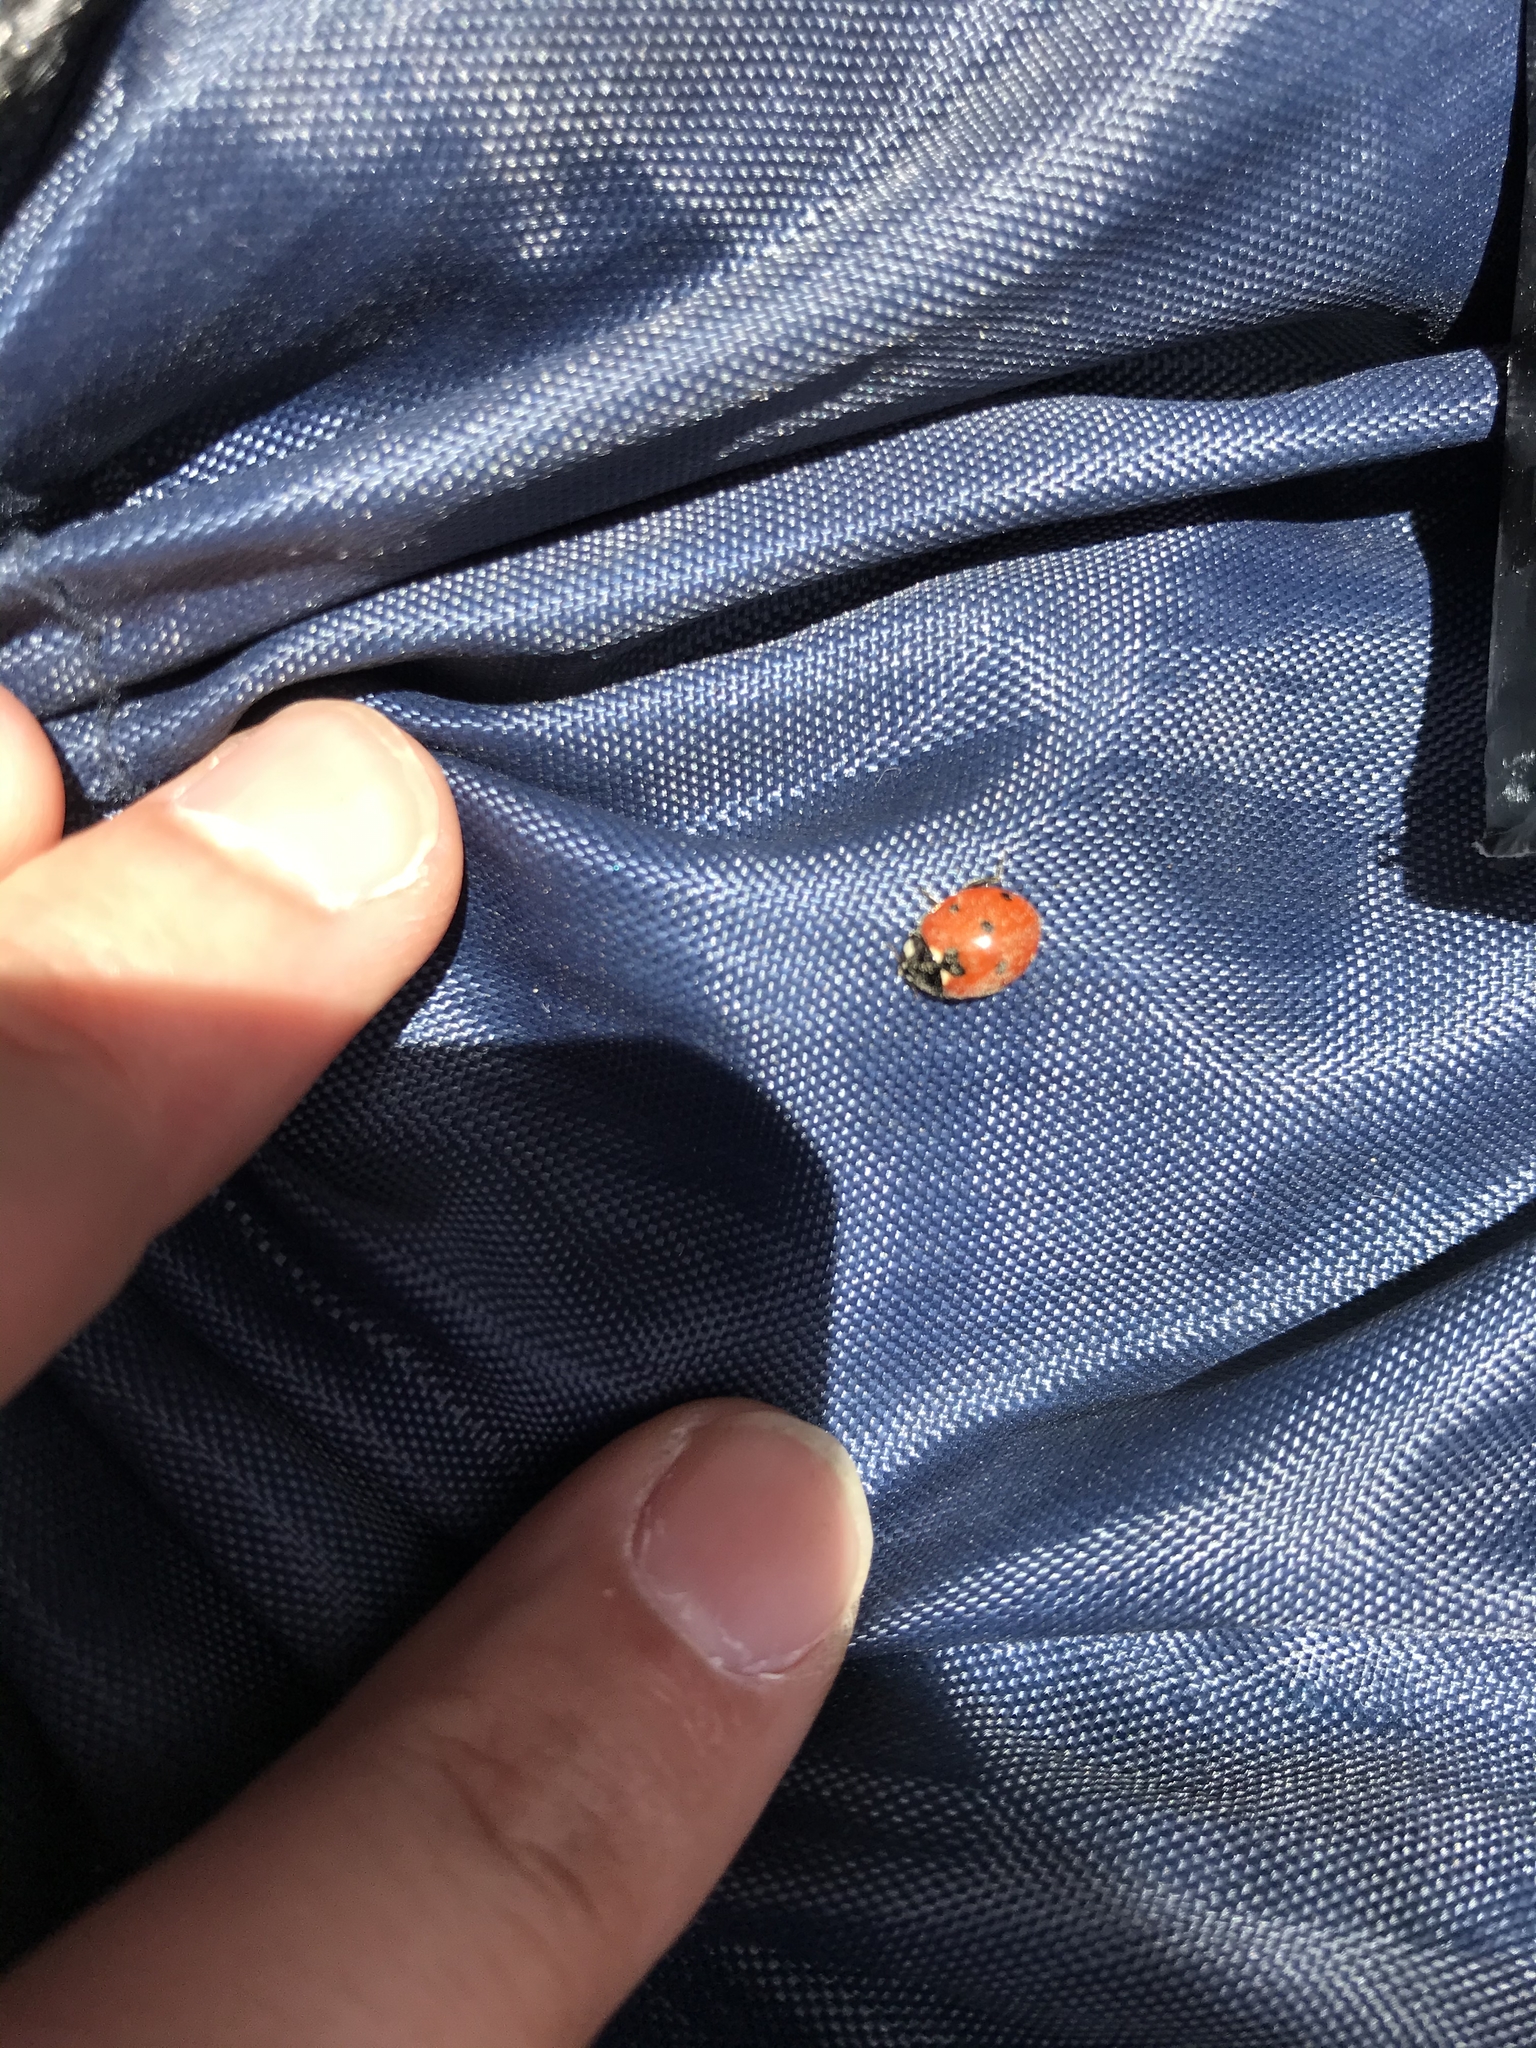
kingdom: Animalia
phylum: Arthropoda
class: Insecta
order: Coleoptera
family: Coccinellidae
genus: Coccinella
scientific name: Coccinella septempunctata
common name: Sevenspotted lady beetle
